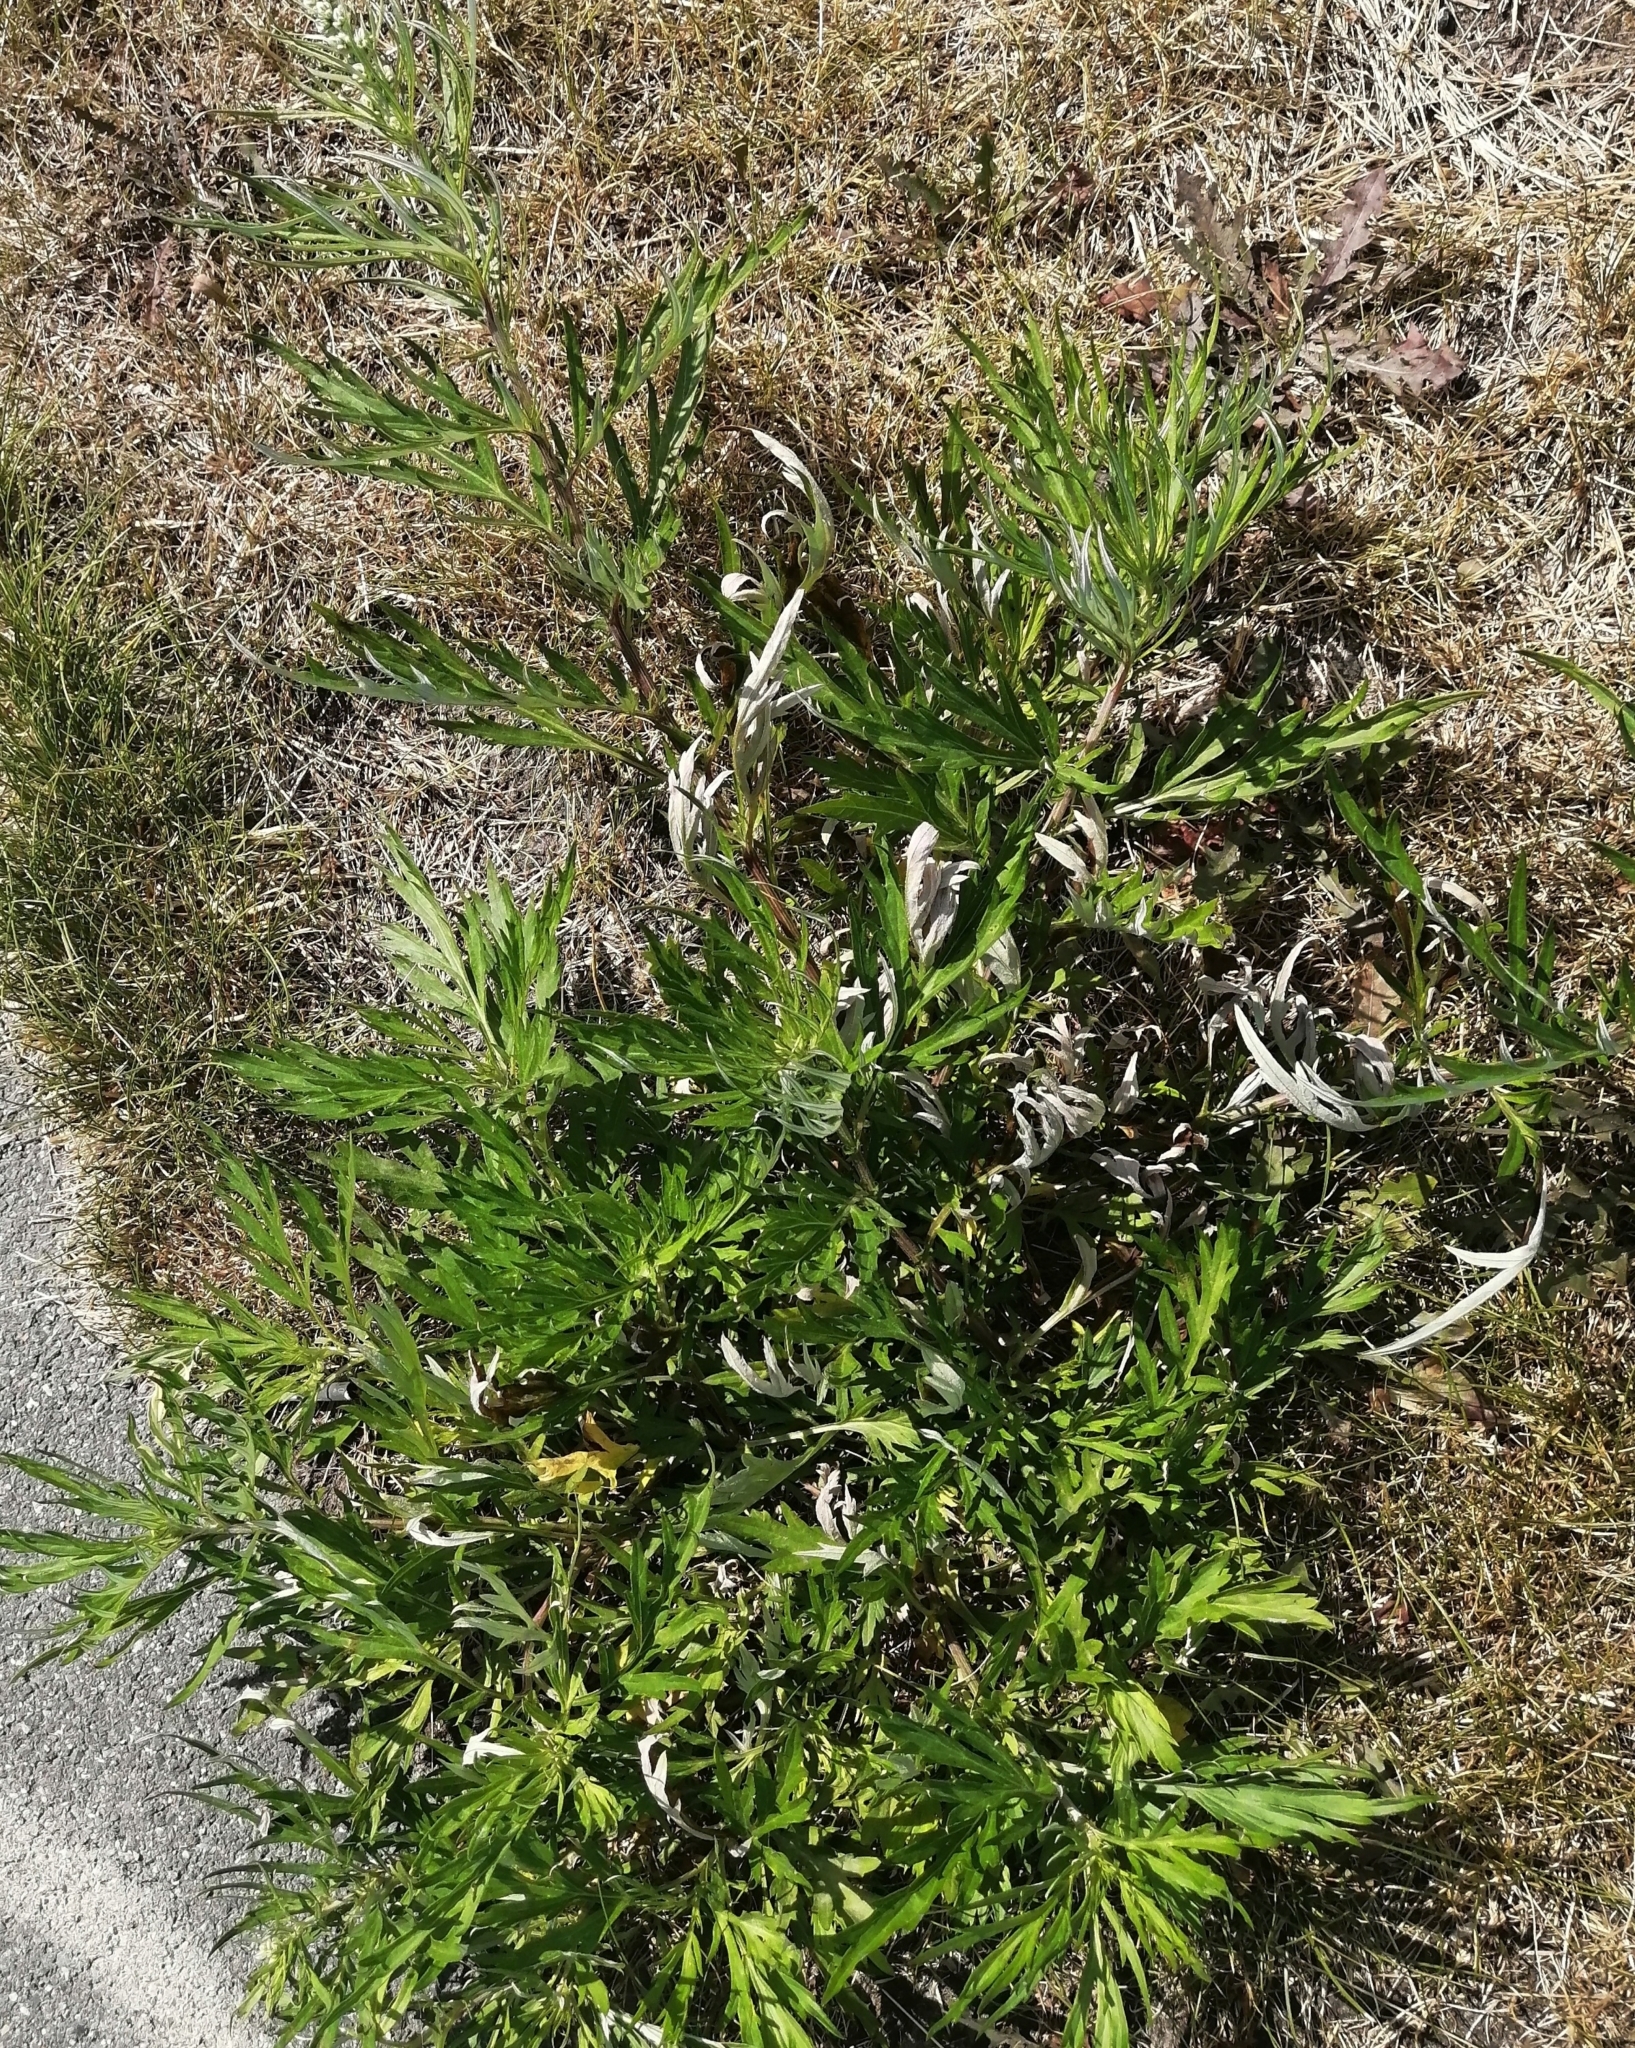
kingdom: Plantae
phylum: Tracheophyta
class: Magnoliopsida
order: Asterales
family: Asteraceae
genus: Artemisia
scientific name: Artemisia vulgaris
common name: Mugwort
